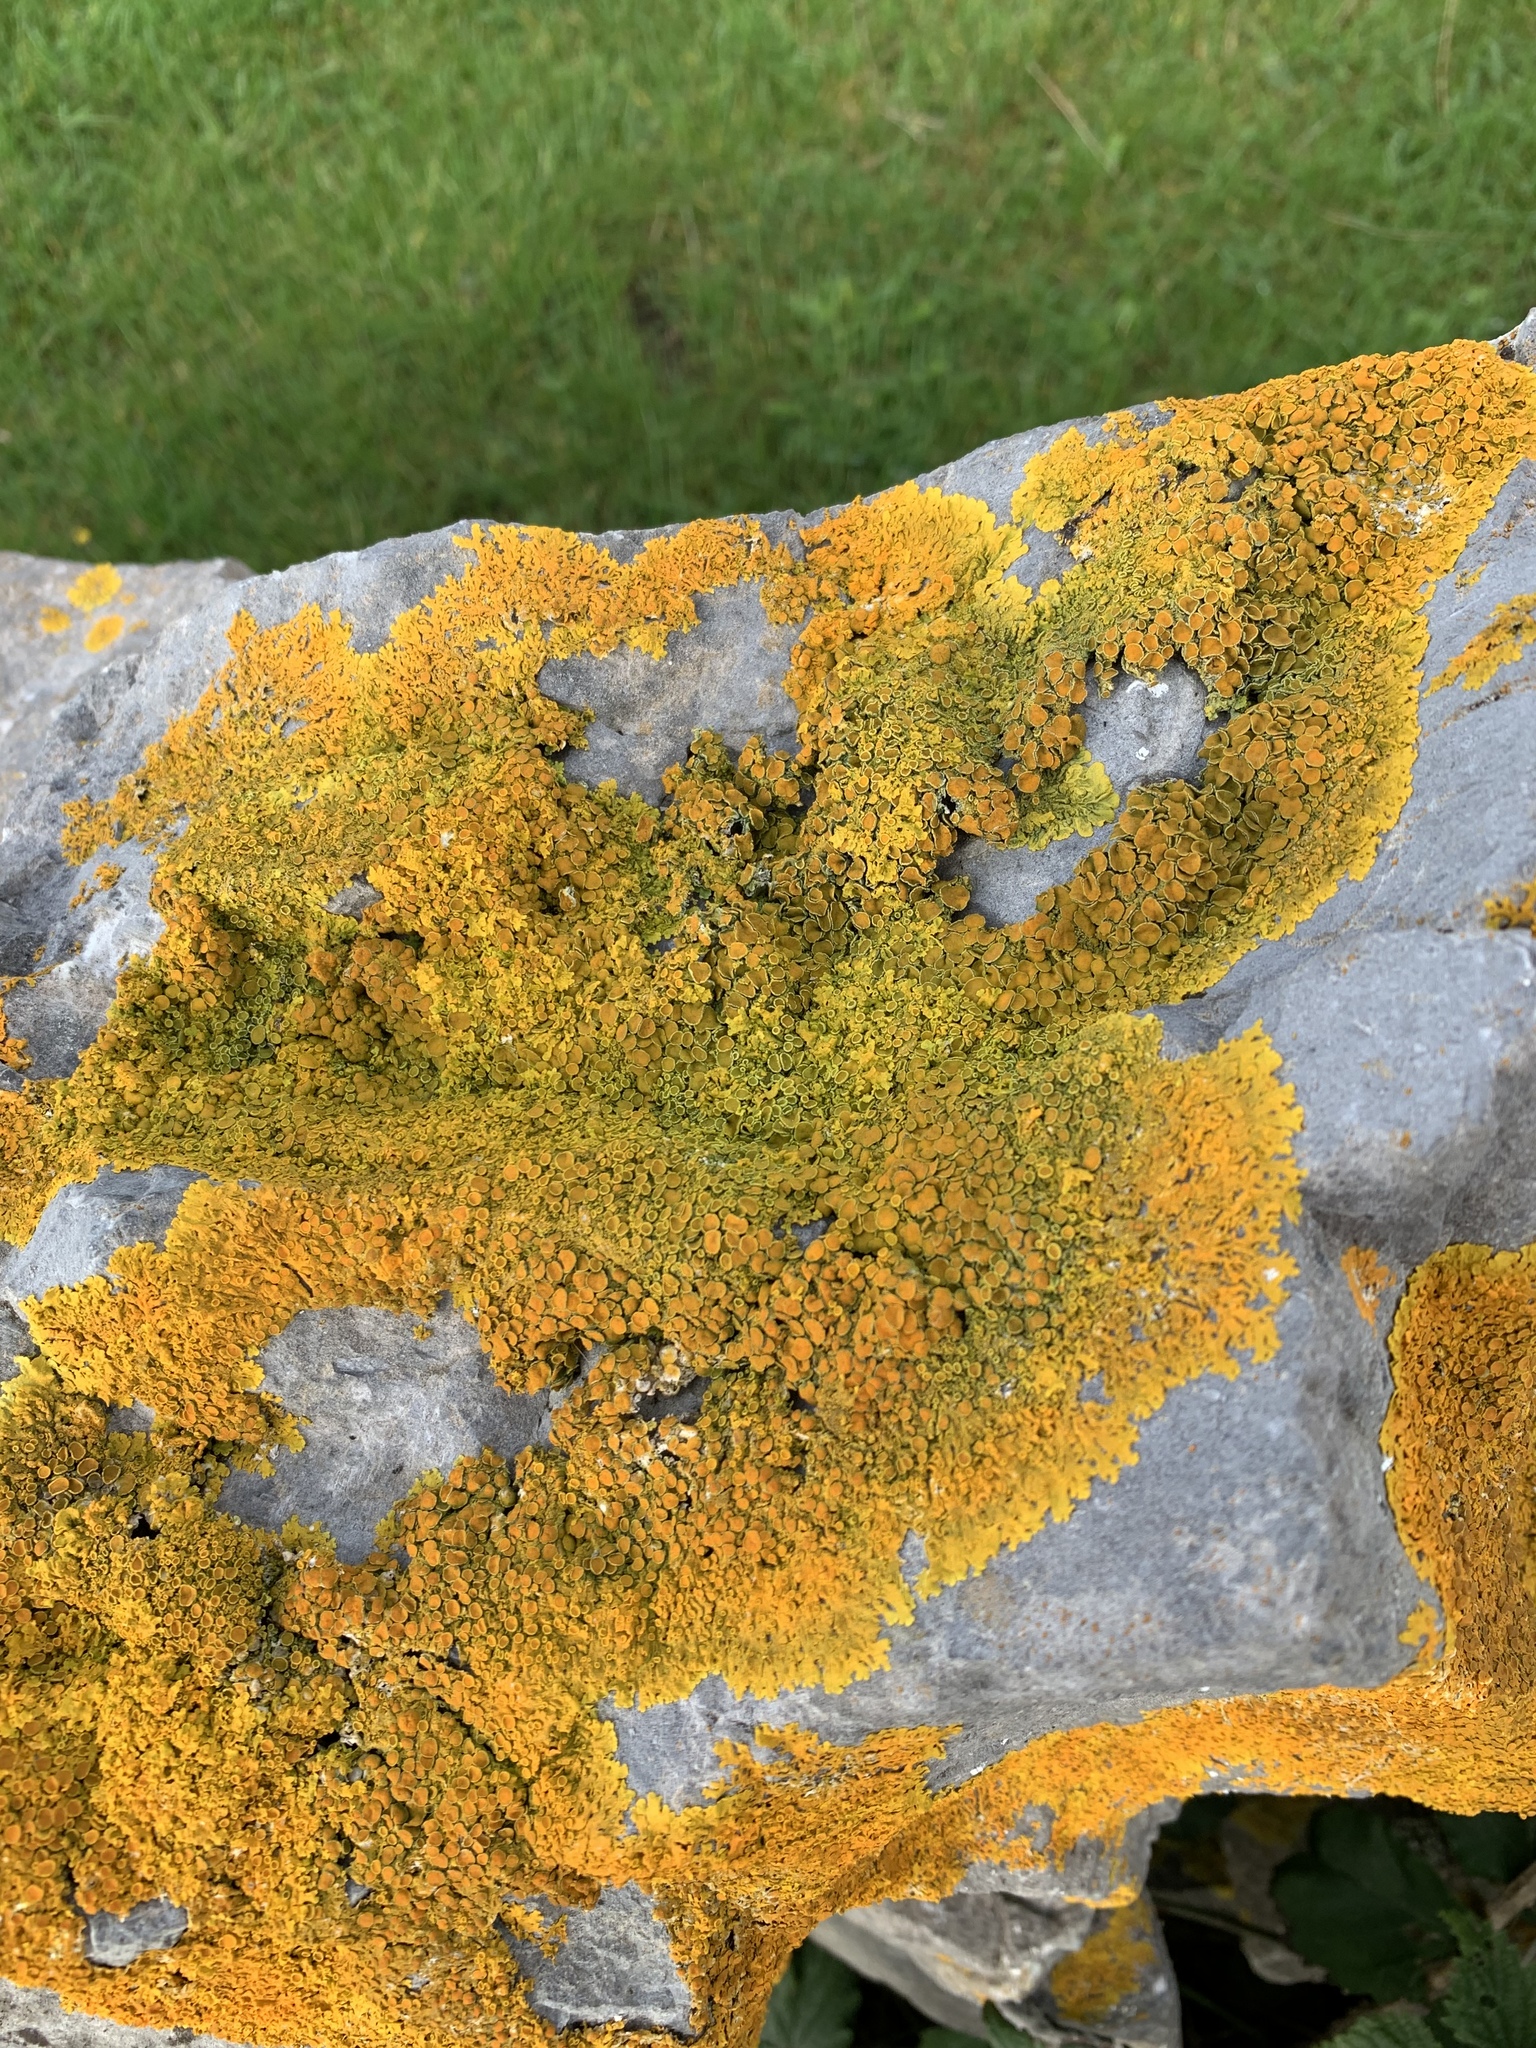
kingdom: Fungi
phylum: Ascomycota
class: Lecanoromycetes
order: Teloschistales
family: Teloschistaceae
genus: Xanthoria
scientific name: Xanthoria parietina
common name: Common orange lichen
